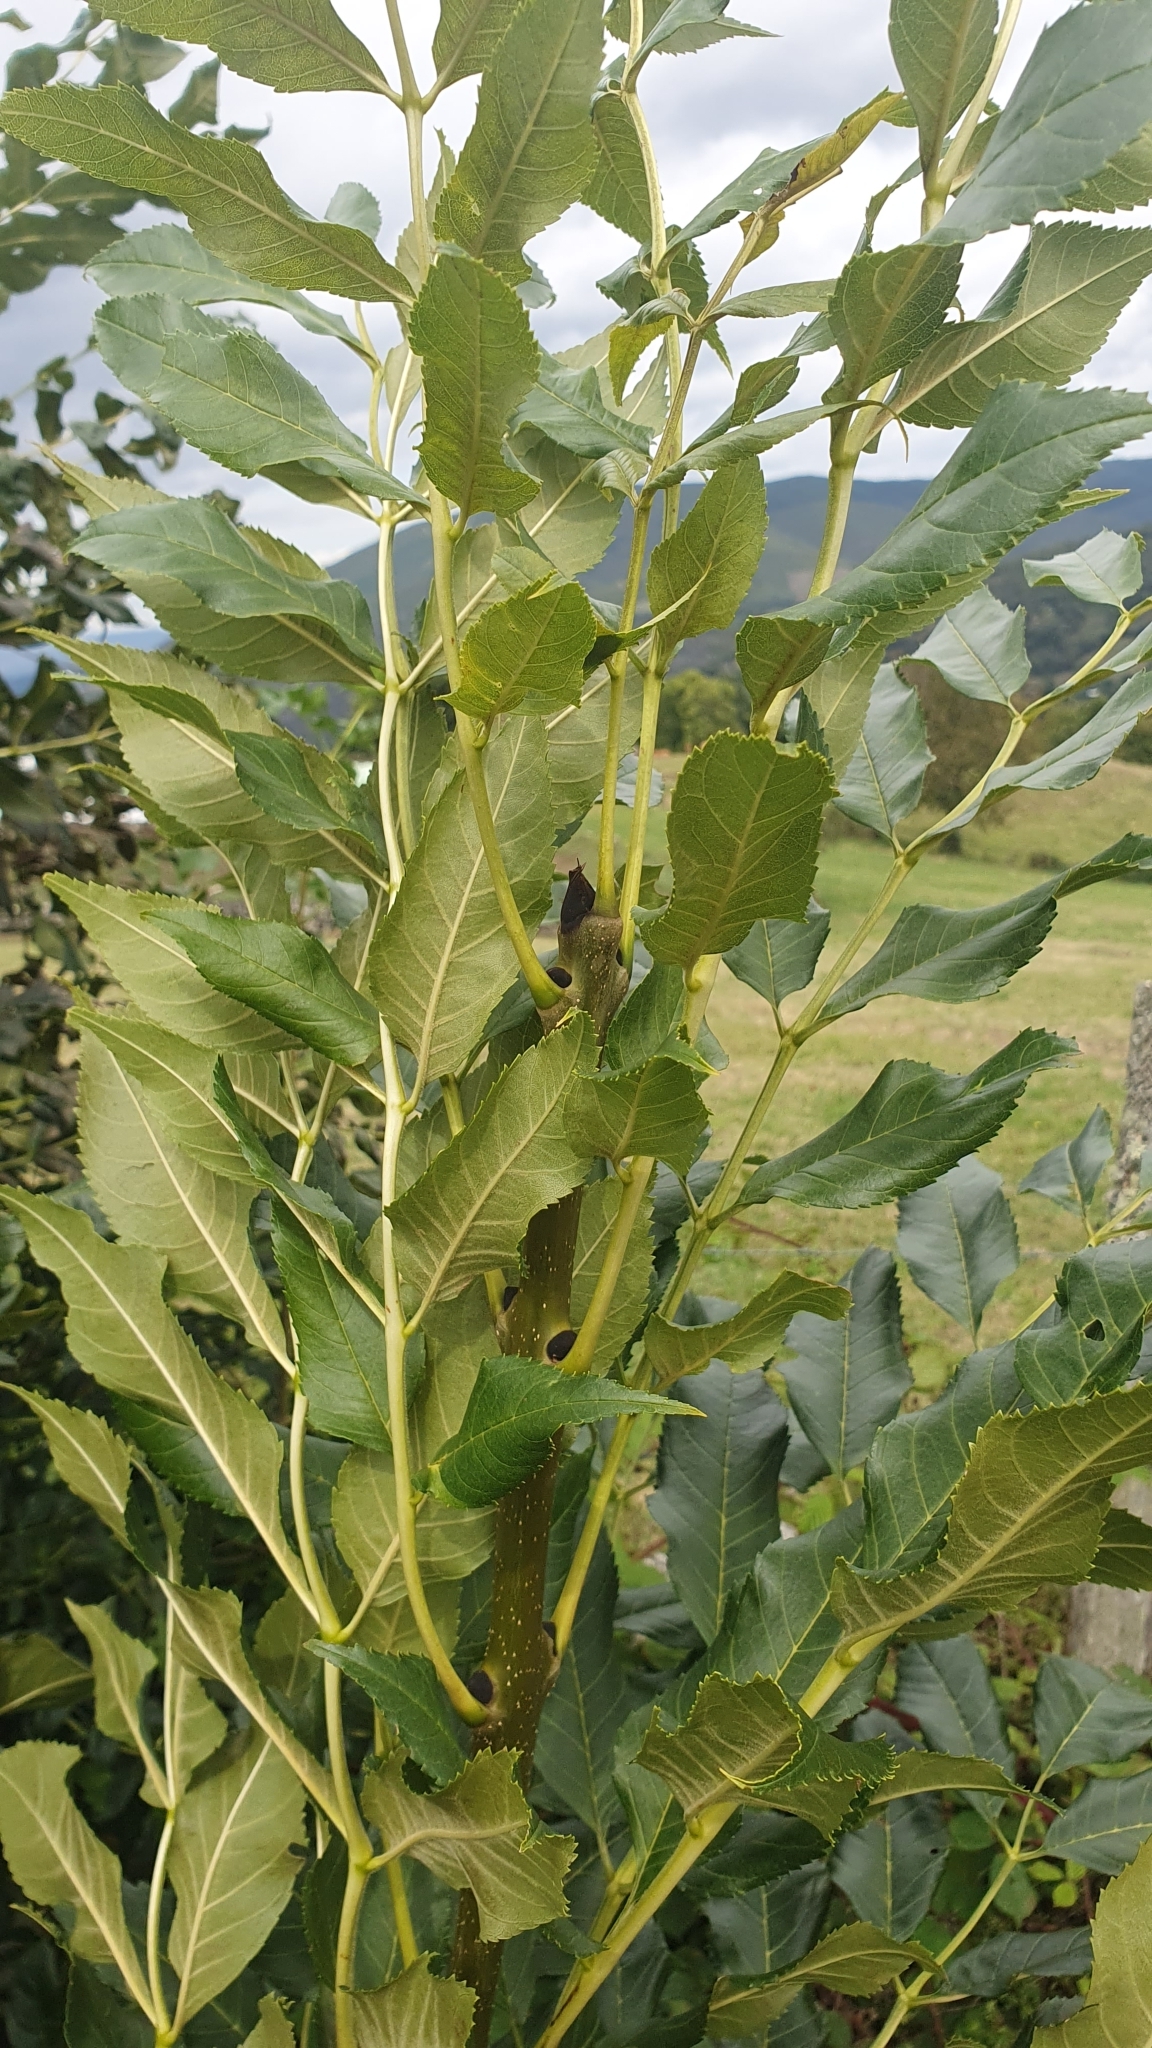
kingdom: Plantae
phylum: Tracheophyta
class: Magnoliopsida
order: Lamiales
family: Oleaceae
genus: Fraxinus
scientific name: Fraxinus excelsior
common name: European ash
